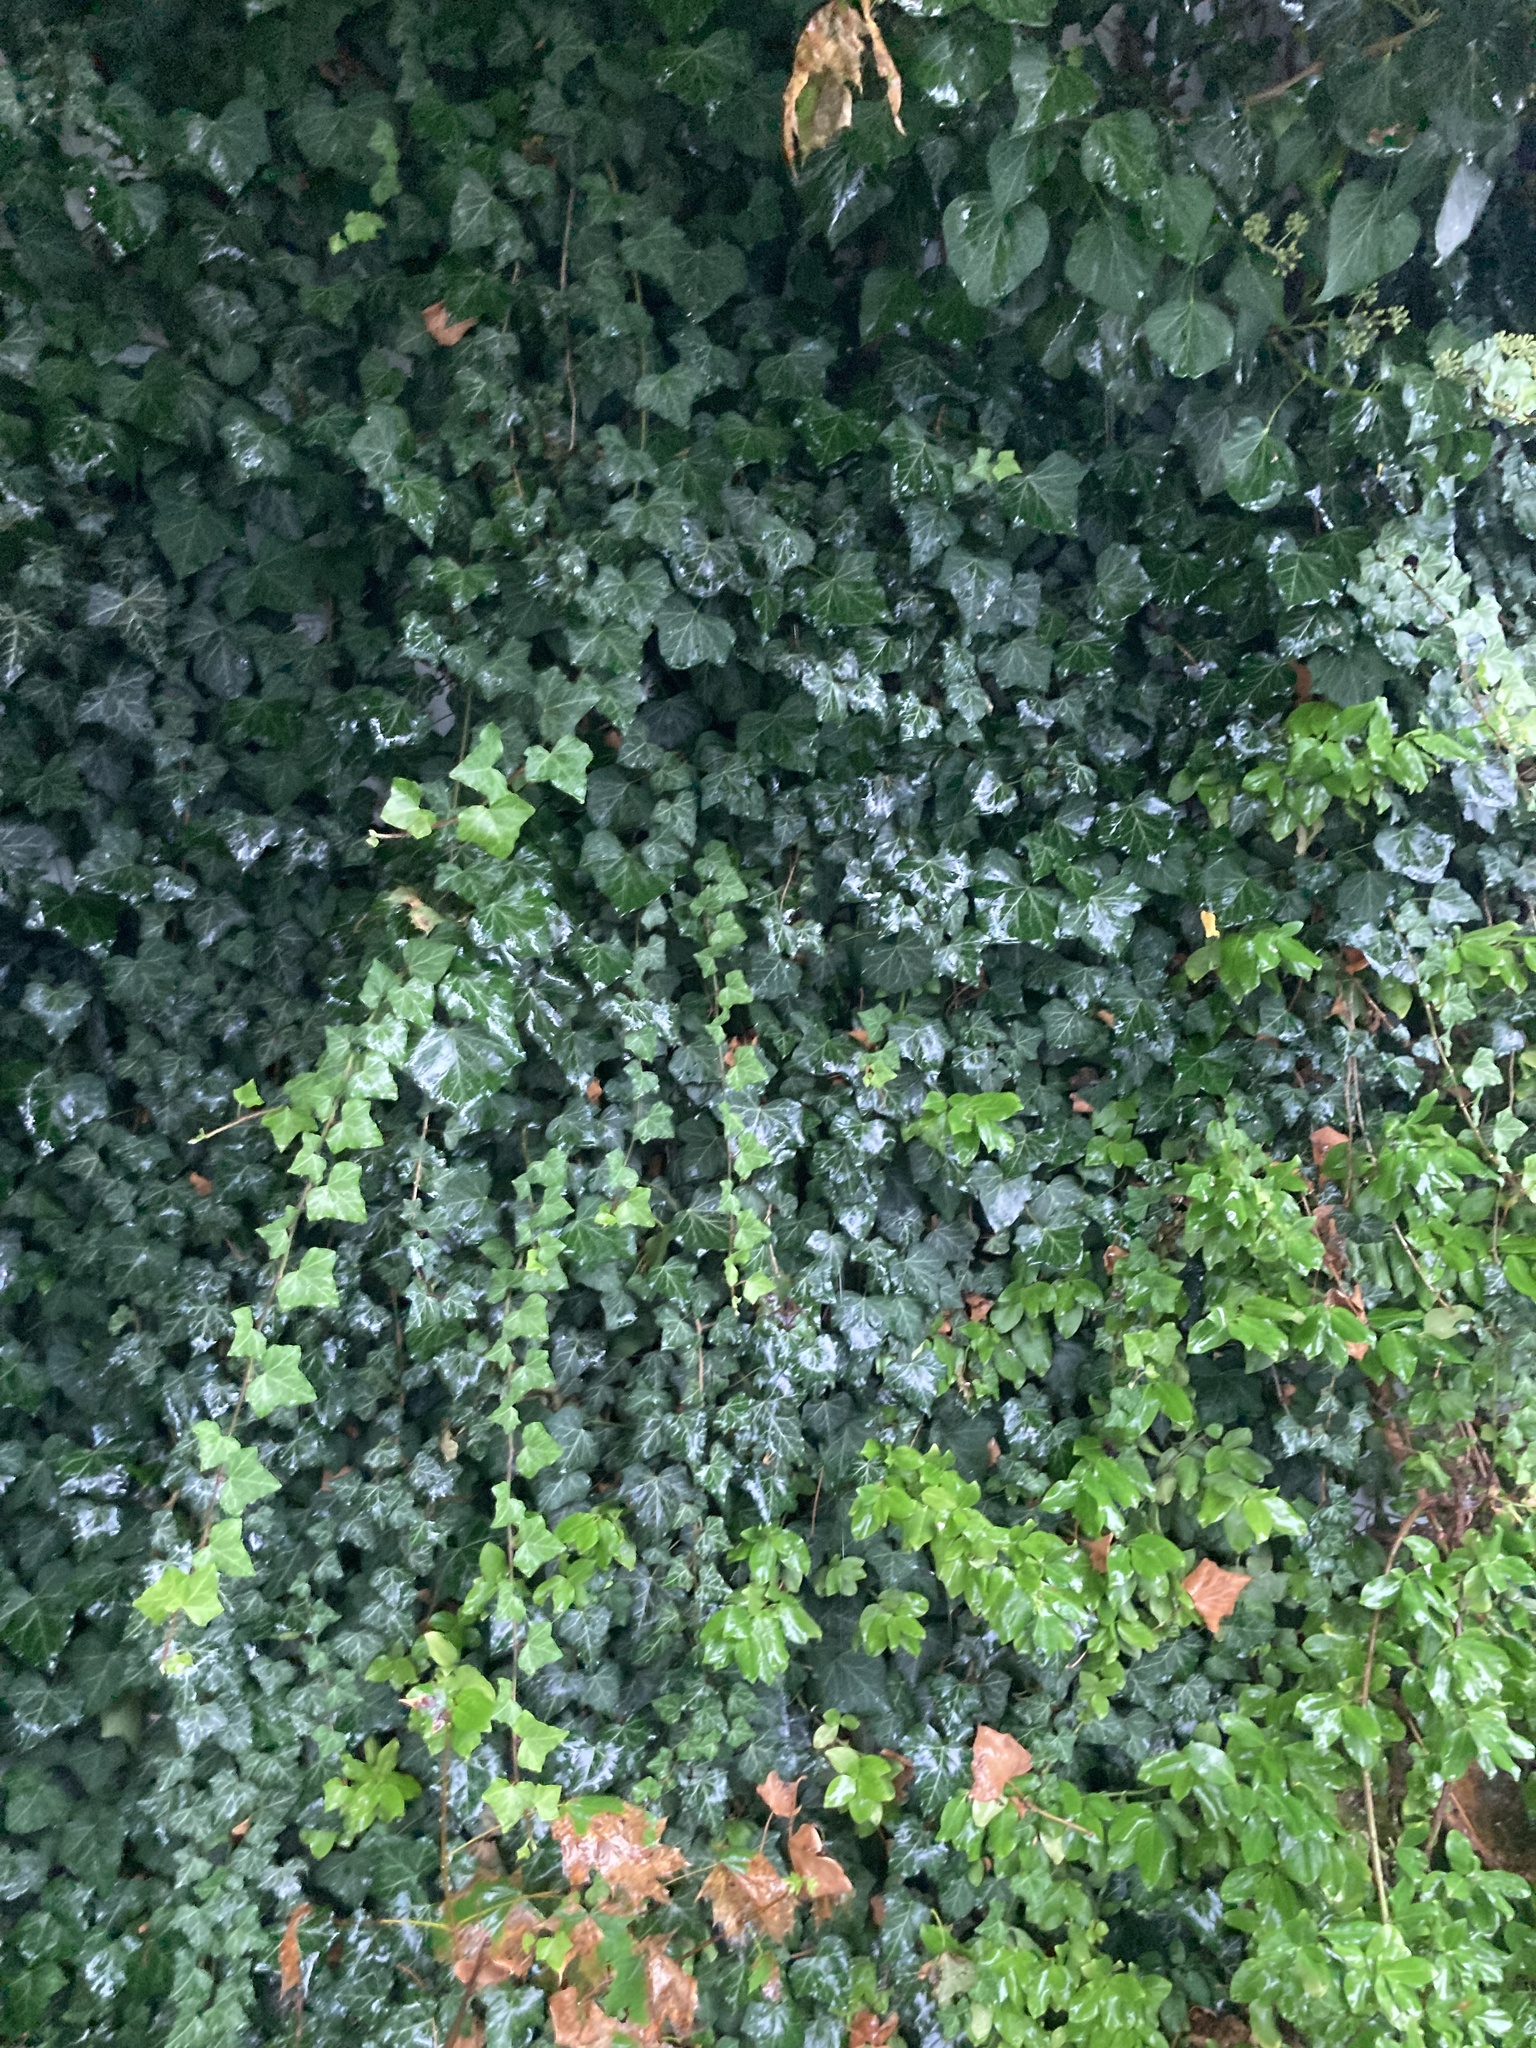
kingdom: Plantae
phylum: Tracheophyta
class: Magnoliopsida
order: Apiales
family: Araliaceae
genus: Hedera
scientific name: Hedera helix
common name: Ivy
